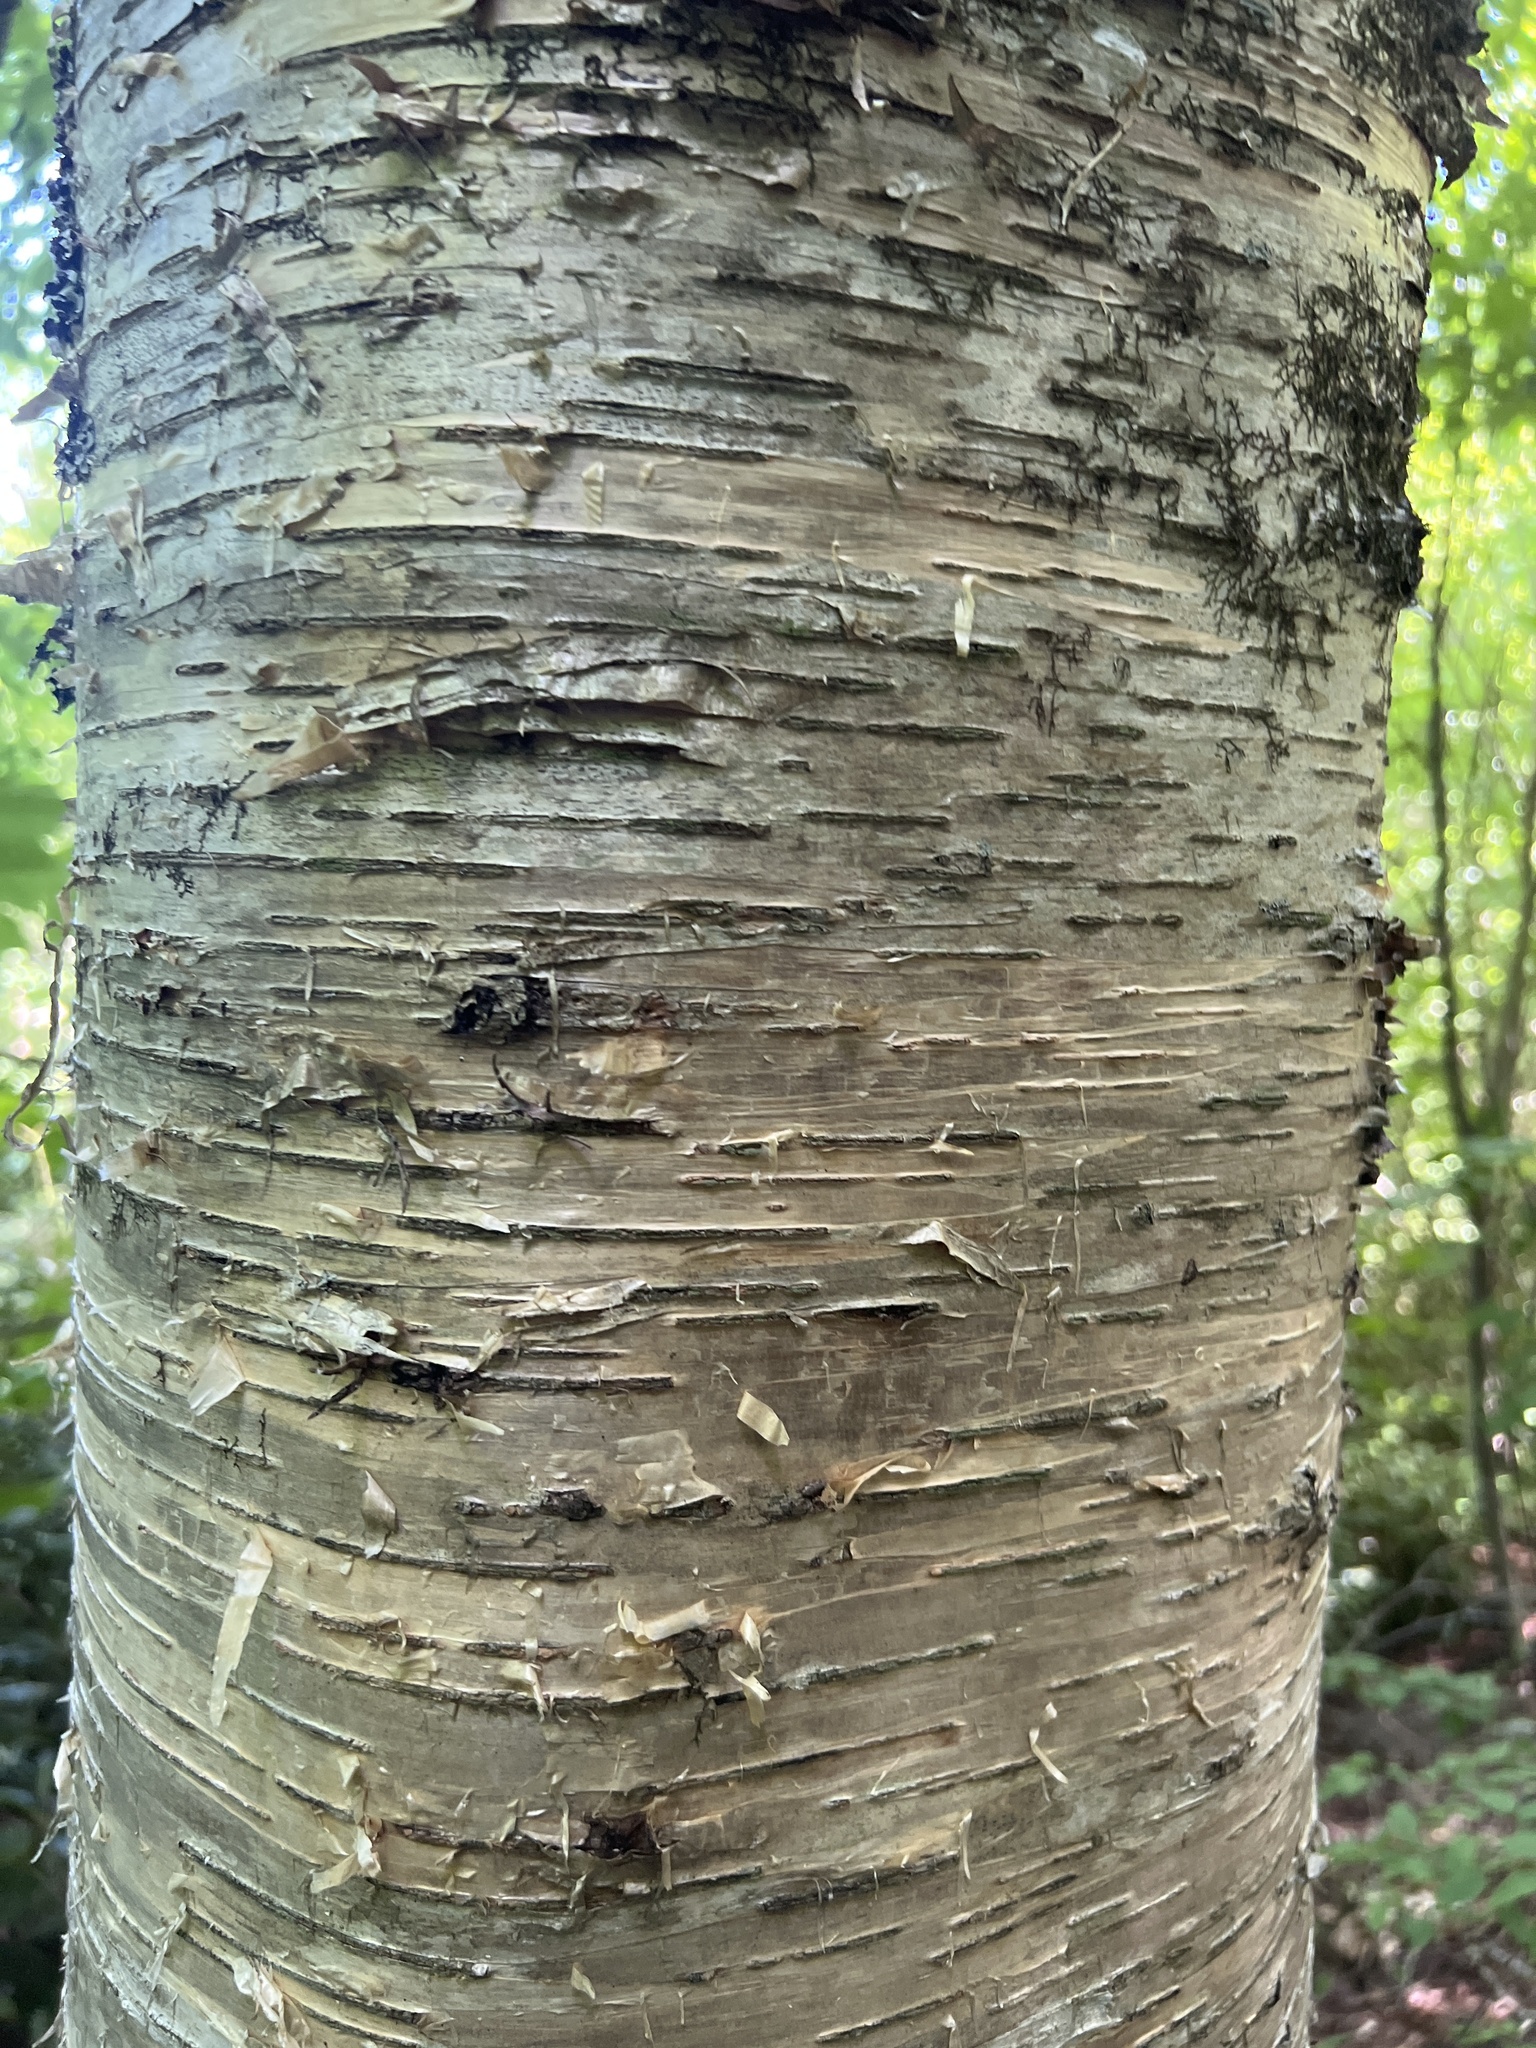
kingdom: Plantae
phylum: Tracheophyta
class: Magnoliopsida
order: Fagales
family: Betulaceae
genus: Betula
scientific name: Betula alleghaniensis
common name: Yellow birch
